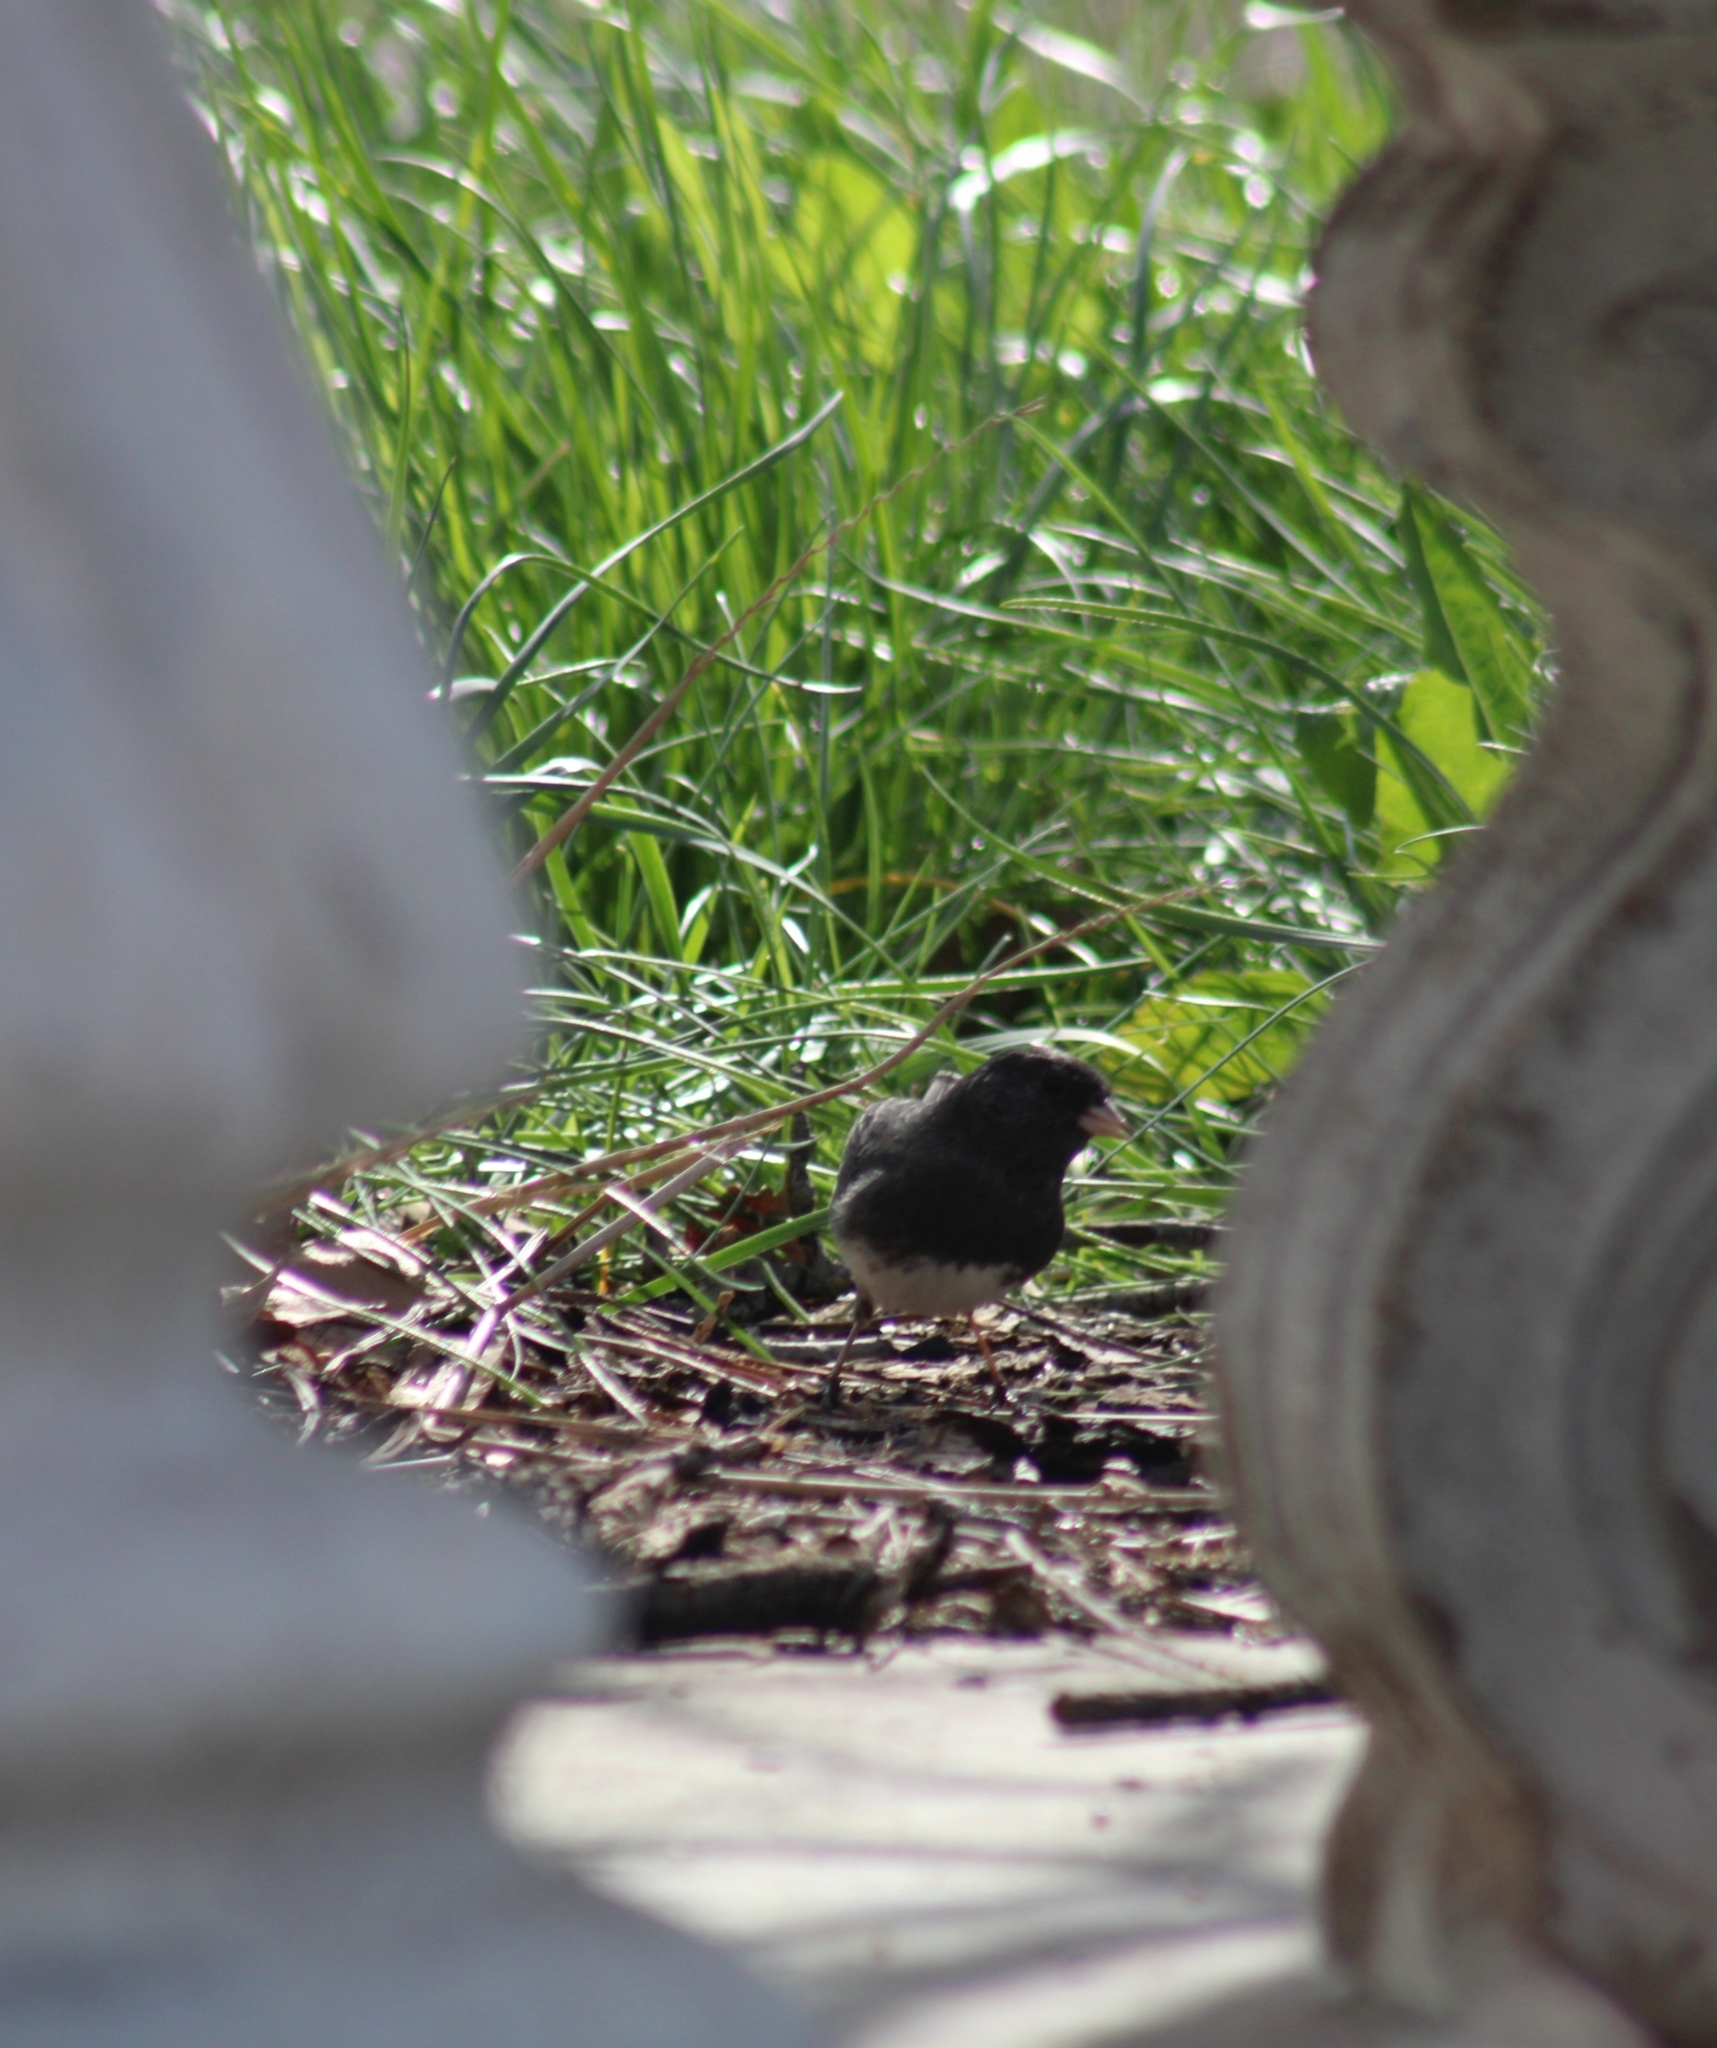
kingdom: Animalia
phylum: Chordata
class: Aves
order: Passeriformes
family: Passerellidae
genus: Junco
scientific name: Junco hyemalis
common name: Dark-eyed junco
